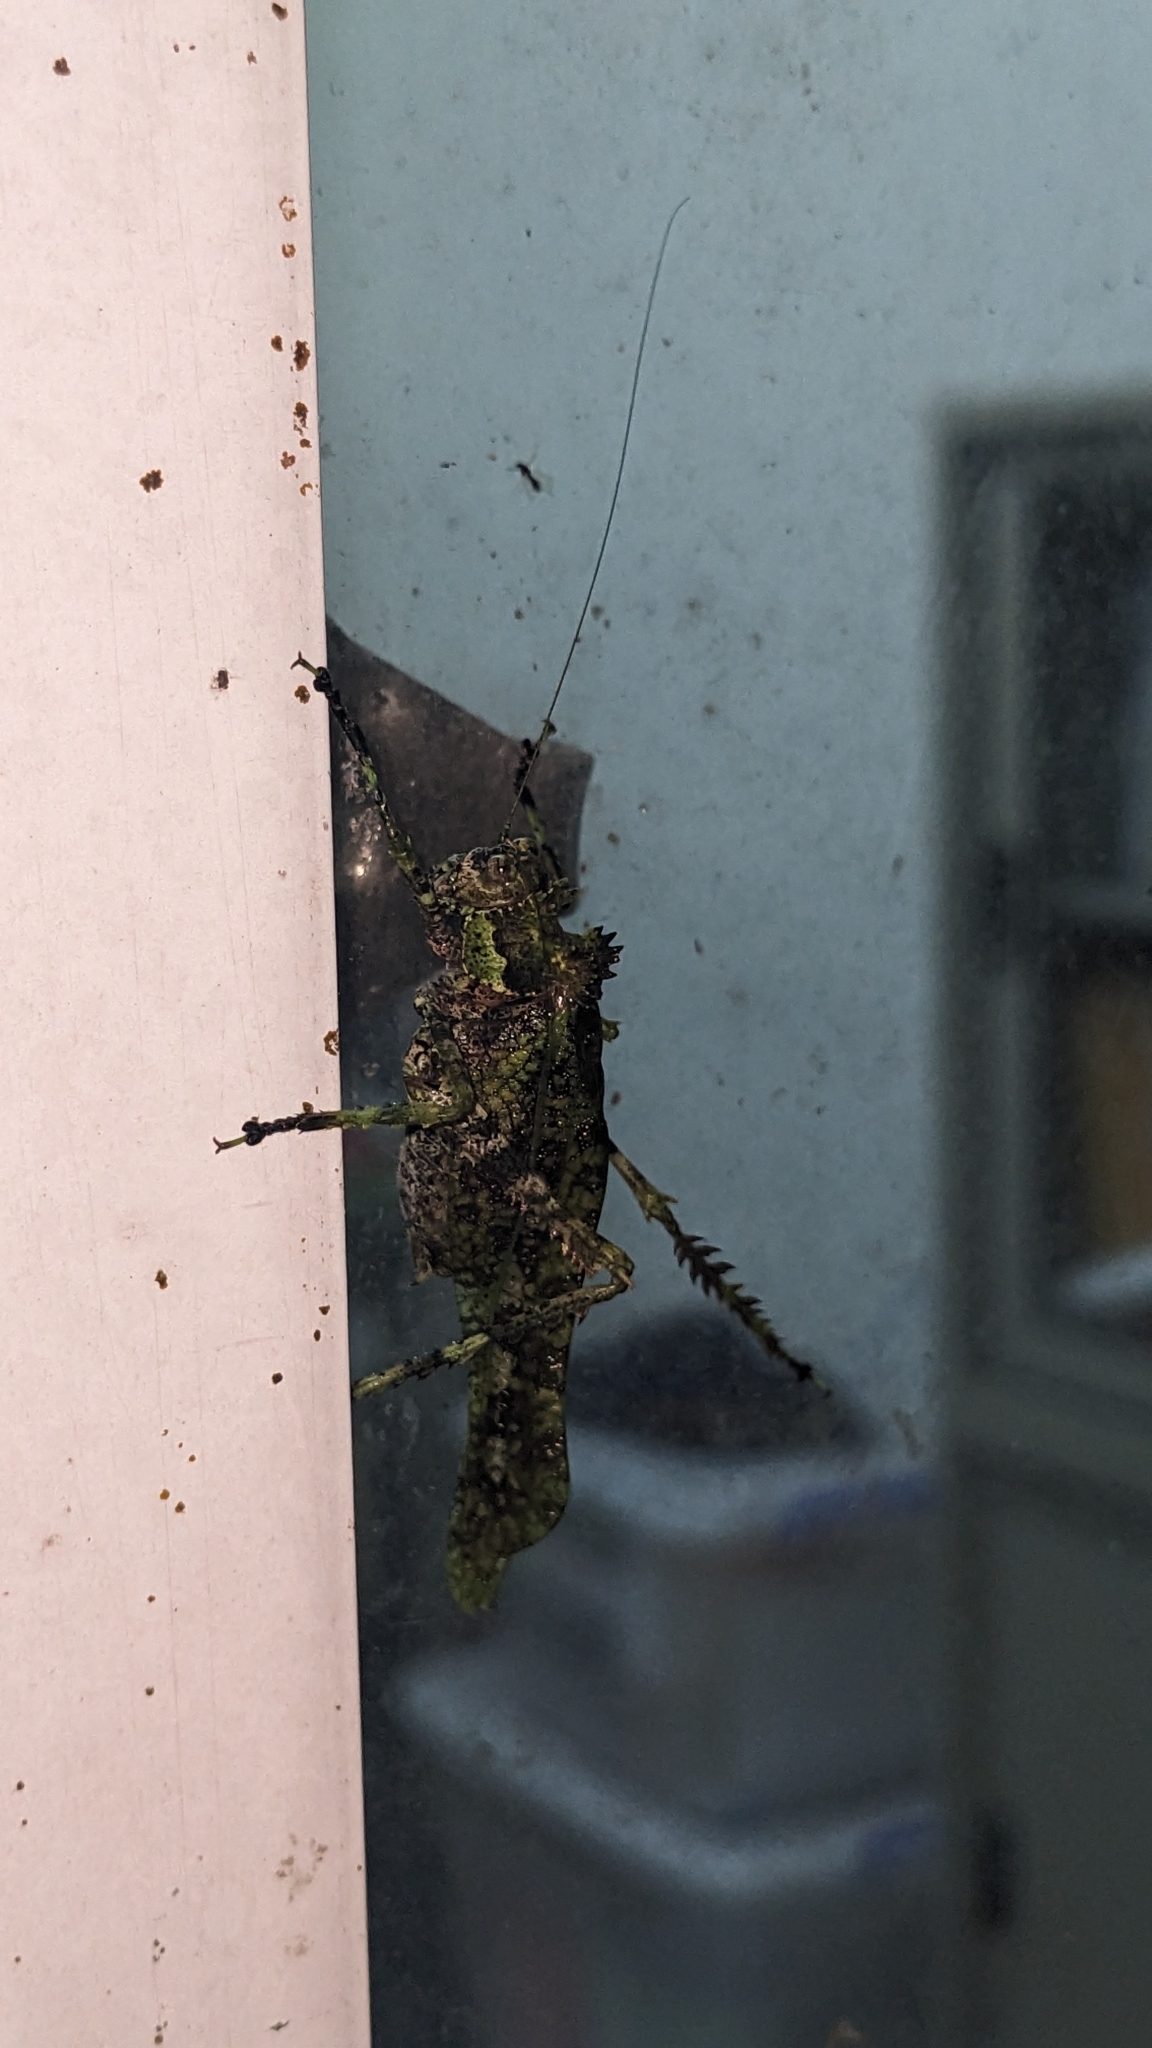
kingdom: Animalia
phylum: Arthropoda
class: Insecta
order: Orthoptera
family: Tettigoniidae
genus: Trachyzulpha
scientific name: Trachyzulpha formosana
